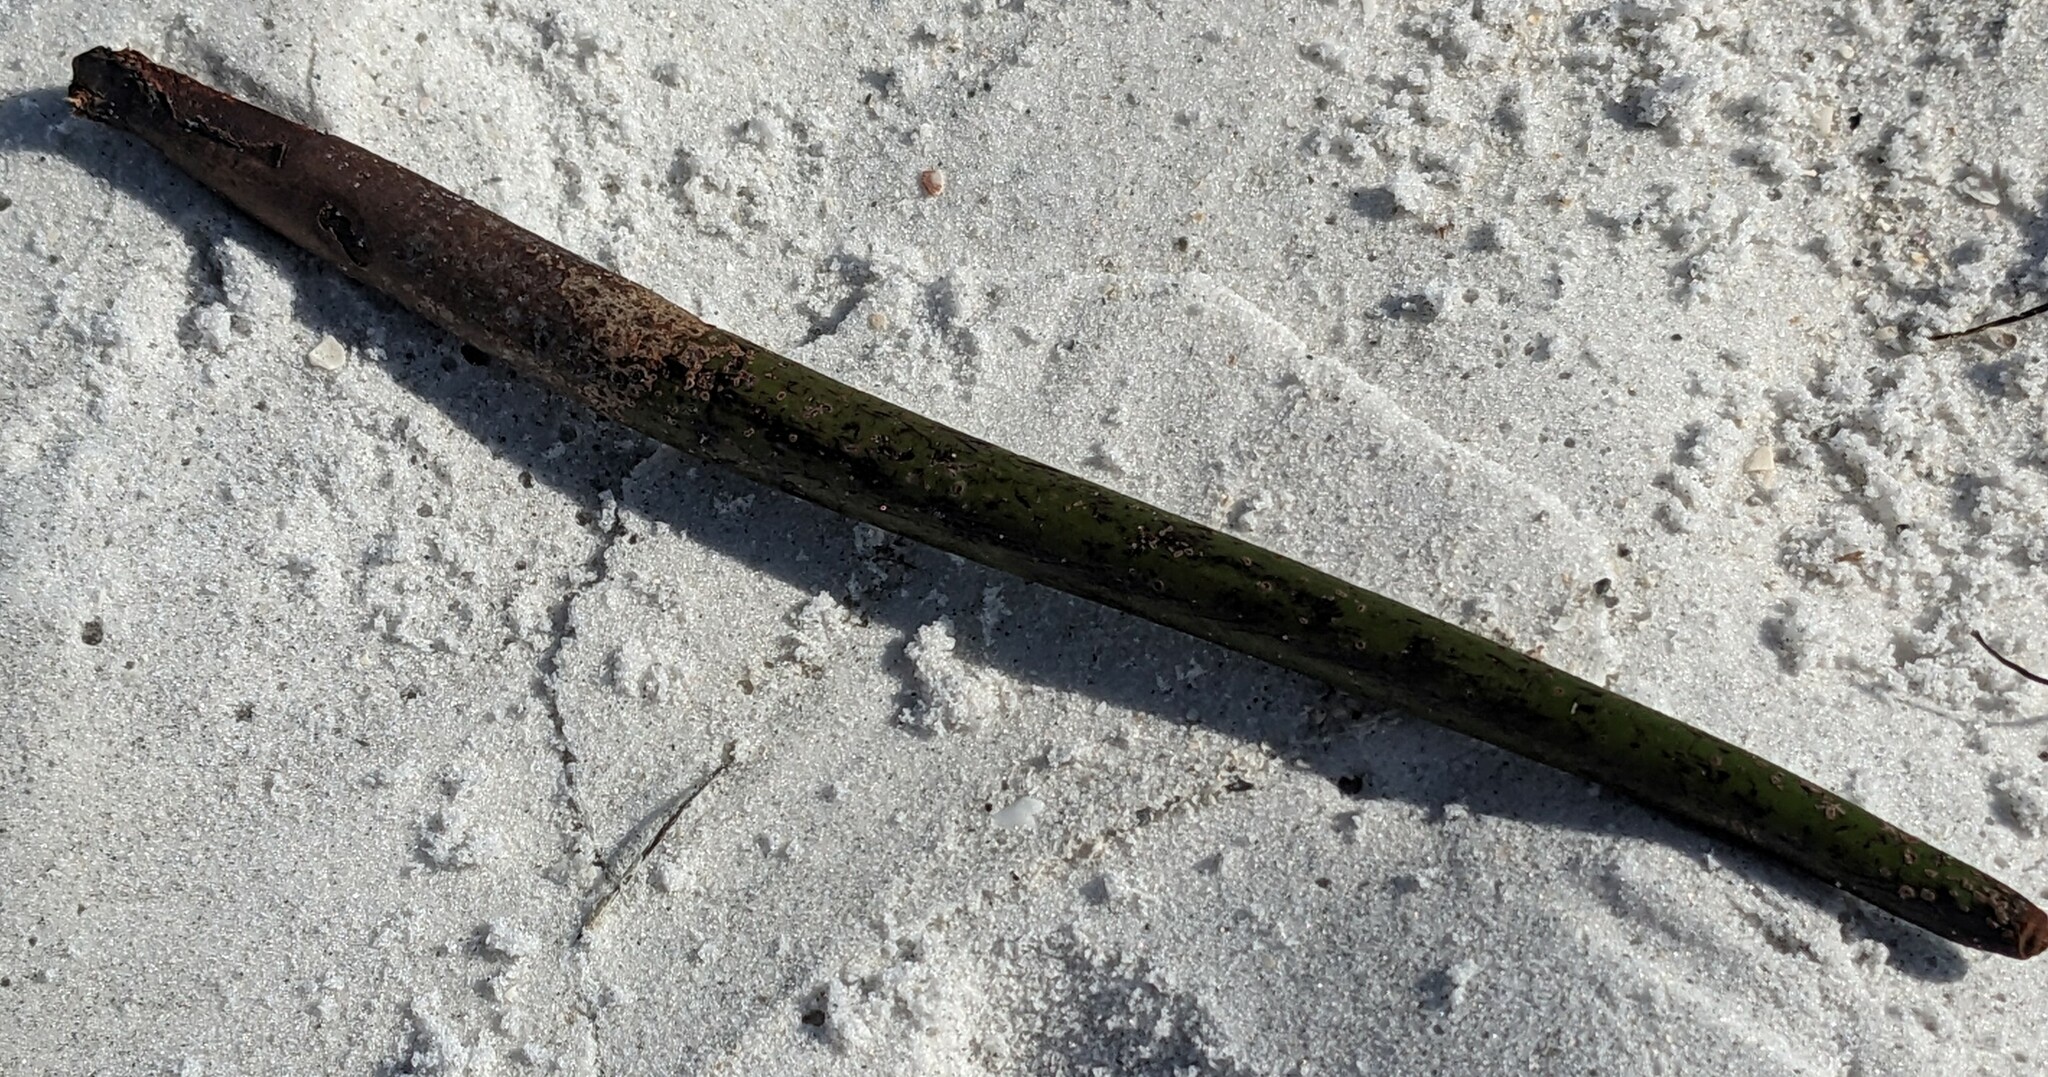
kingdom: Plantae
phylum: Tracheophyta
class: Magnoliopsida
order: Malpighiales
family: Rhizophoraceae
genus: Rhizophora
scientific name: Rhizophora mangle
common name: Red mangrove
